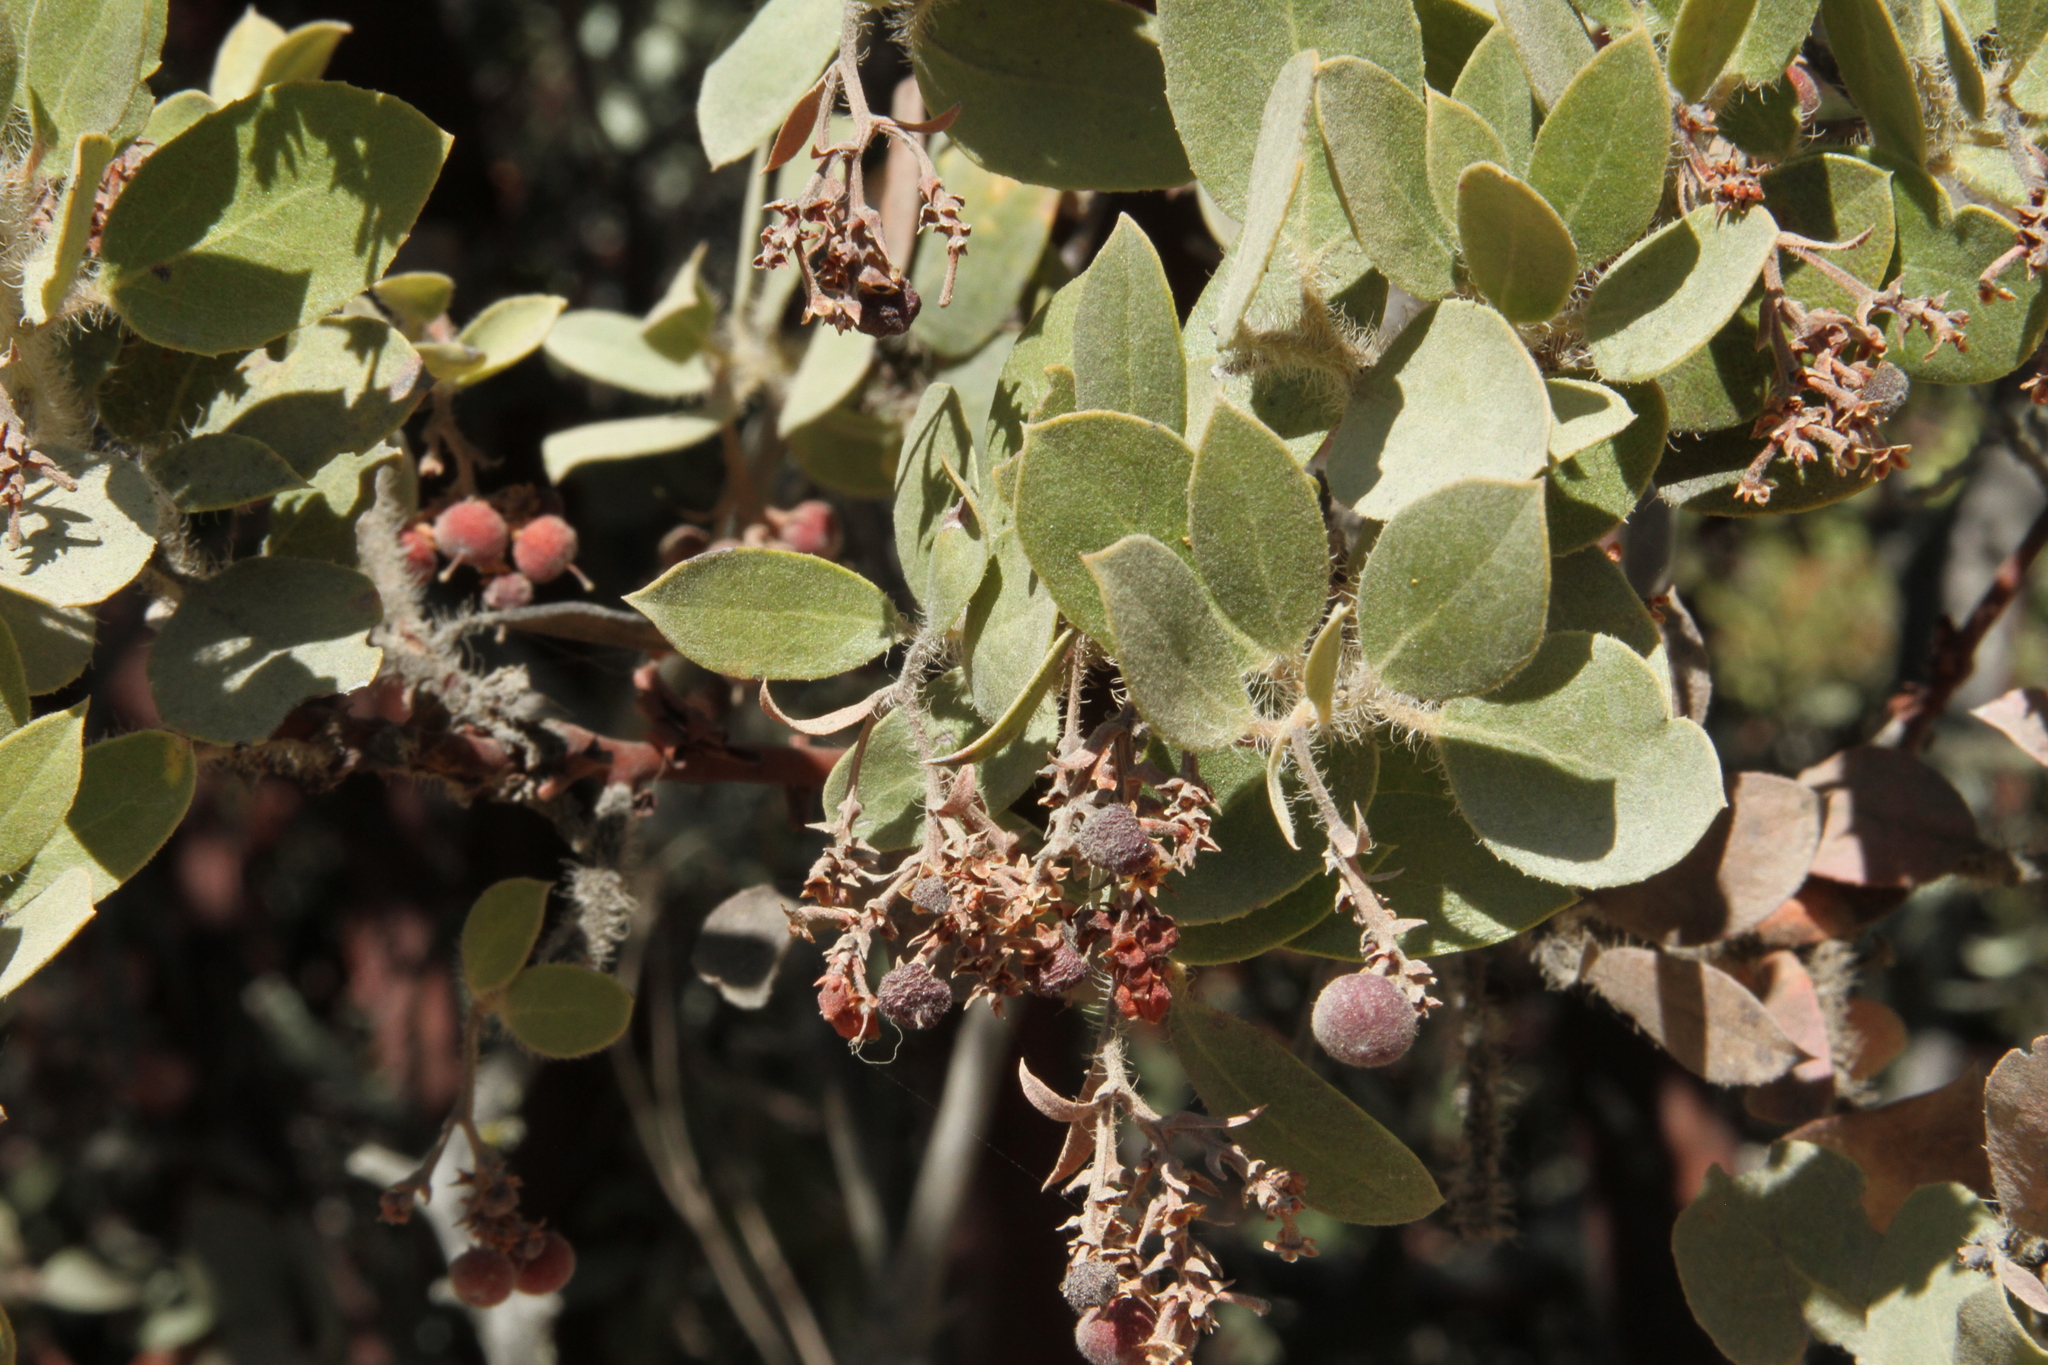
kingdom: Plantae
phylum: Tracheophyta
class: Magnoliopsida
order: Ericales
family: Ericaceae
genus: Arctostaphylos
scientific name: Arctostaphylos crustacea
